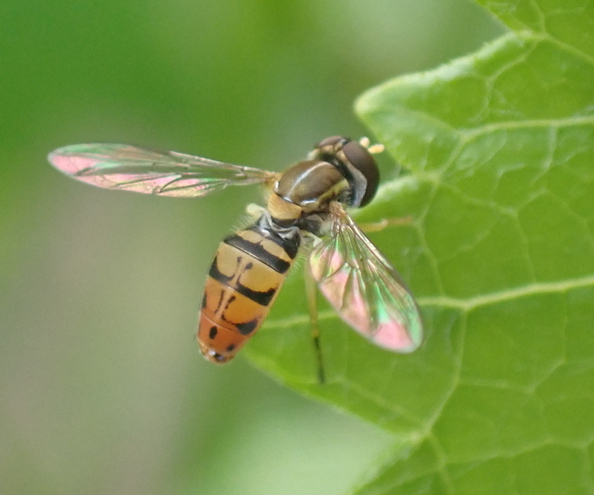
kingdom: Animalia
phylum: Arthropoda
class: Insecta
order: Diptera
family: Syrphidae
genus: Toxomerus
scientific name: Toxomerus marginatus
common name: Syrphid fly
